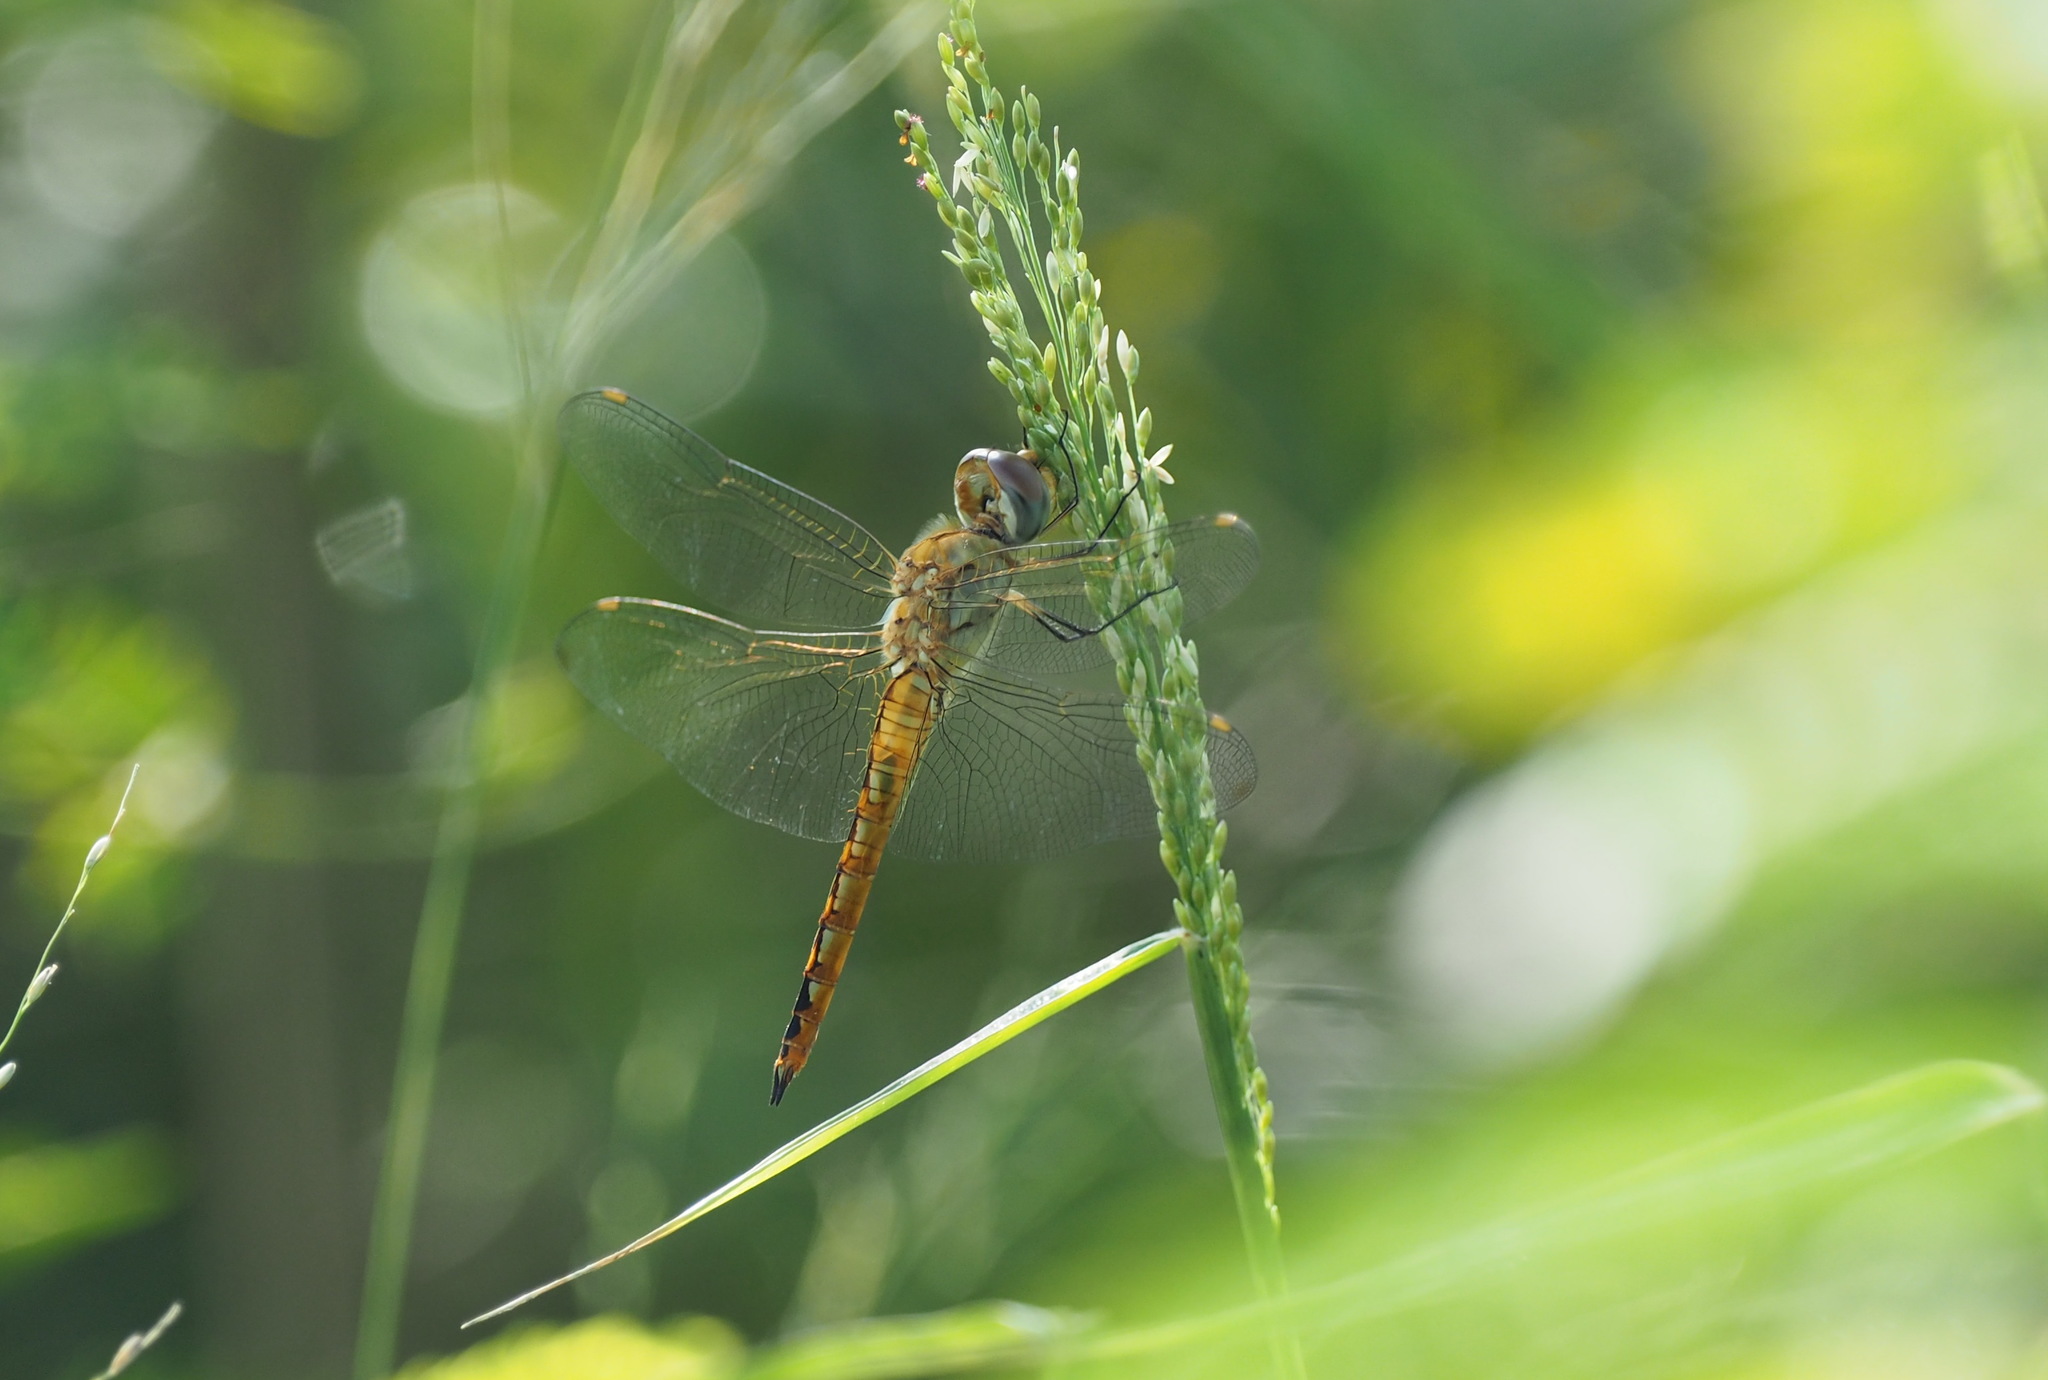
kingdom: Animalia
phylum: Arthropoda
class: Insecta
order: Odonata
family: Libellulidae
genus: Pantala
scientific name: Pantala flavescens
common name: Wandering glider
